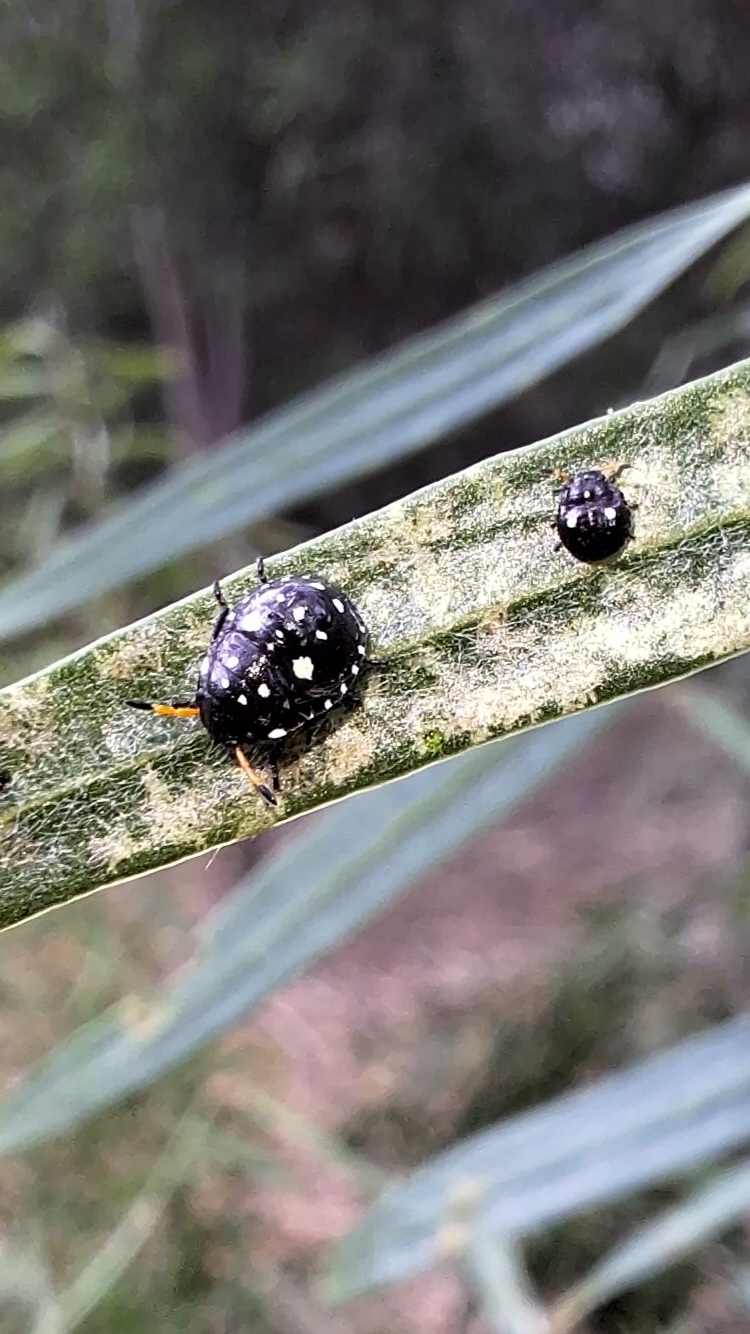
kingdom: Animalia
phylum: Arthropoda
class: Insecta
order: Hemiptera
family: Pentatomidae
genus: Pseudapines
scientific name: Pseudapines
